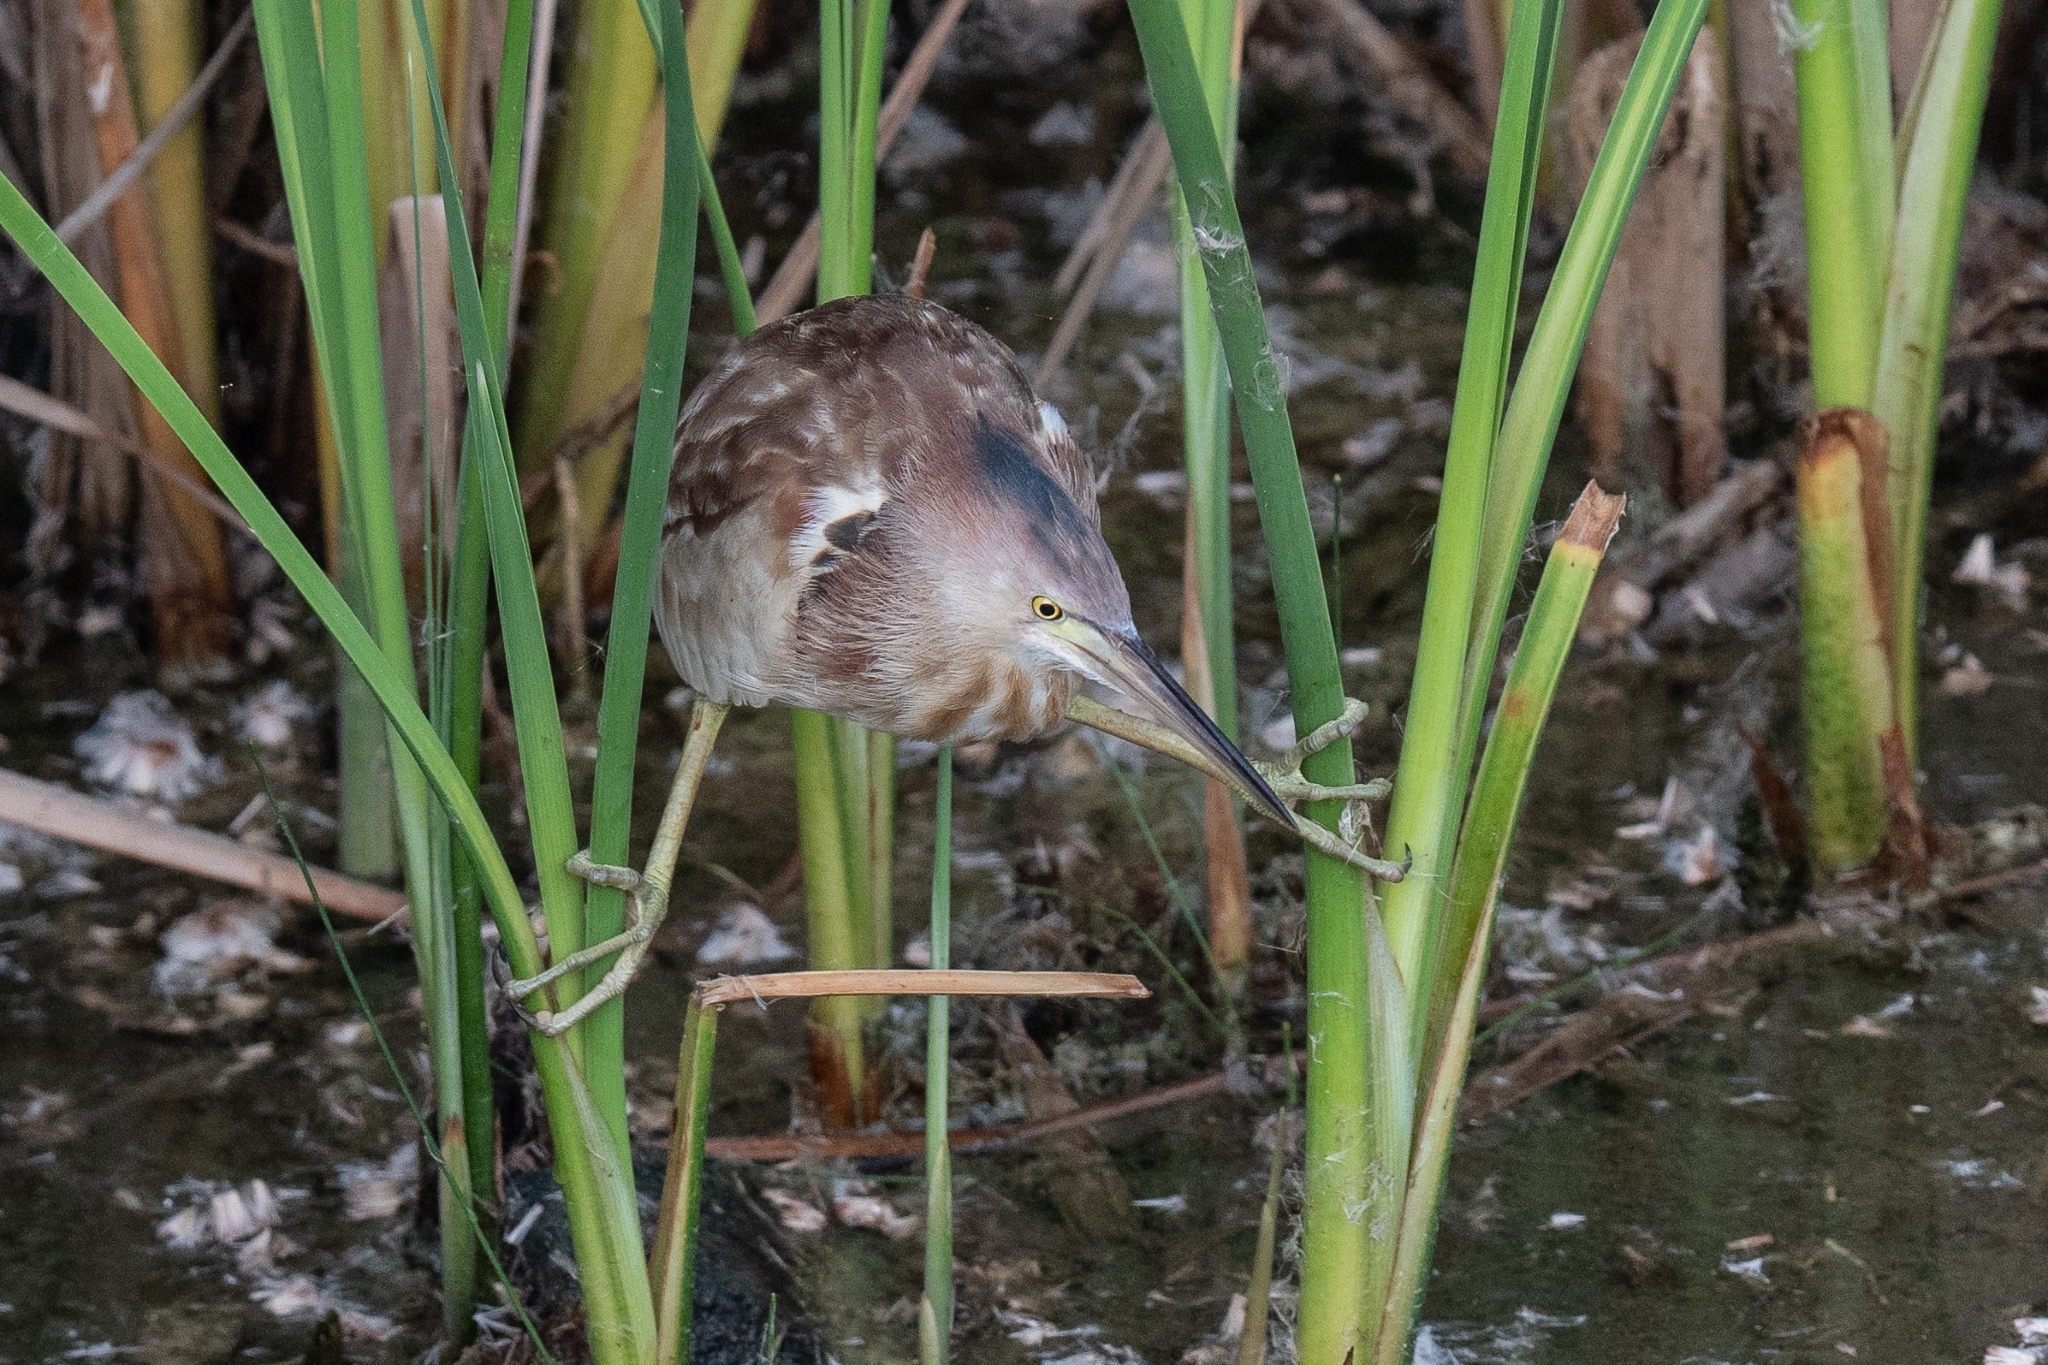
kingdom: Animalia
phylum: Chordata
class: Aves
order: Pelecaniformes
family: Ardeidae
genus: Ixobrychus
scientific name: Ixobrychus sinensis
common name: Yellow bittern
